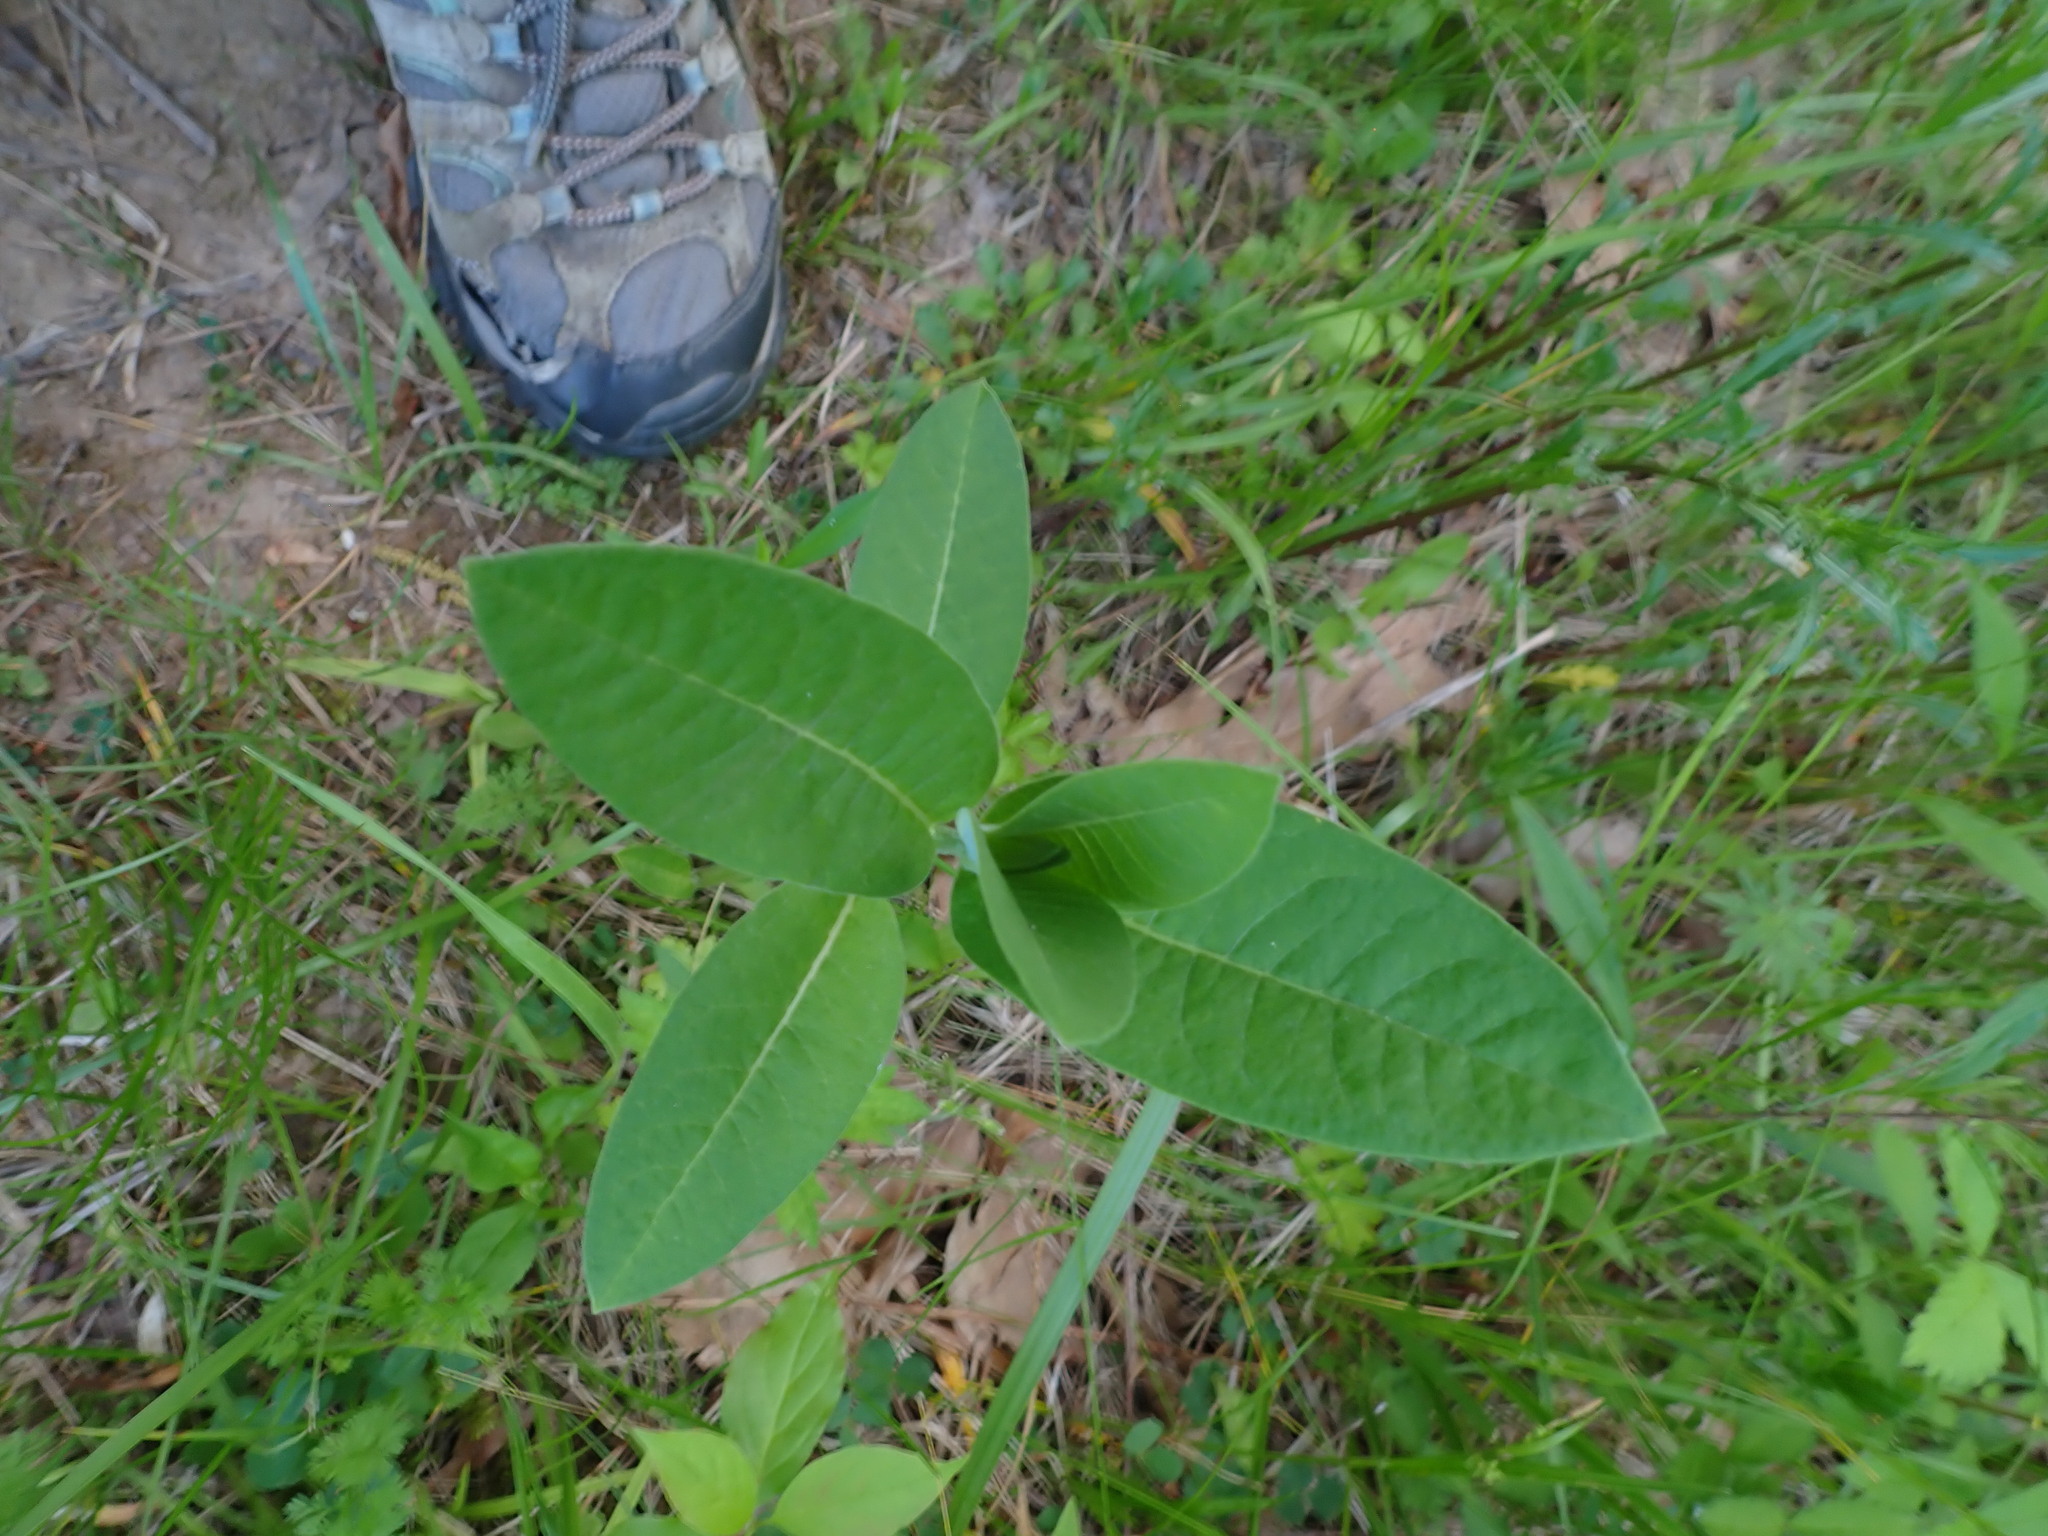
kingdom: Plantae
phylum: Tracheophyta
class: Magnoliopsida
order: Gentianales
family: Apocynaceae
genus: Asclepias
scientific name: Asclepias syriaca
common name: Common milkweed
